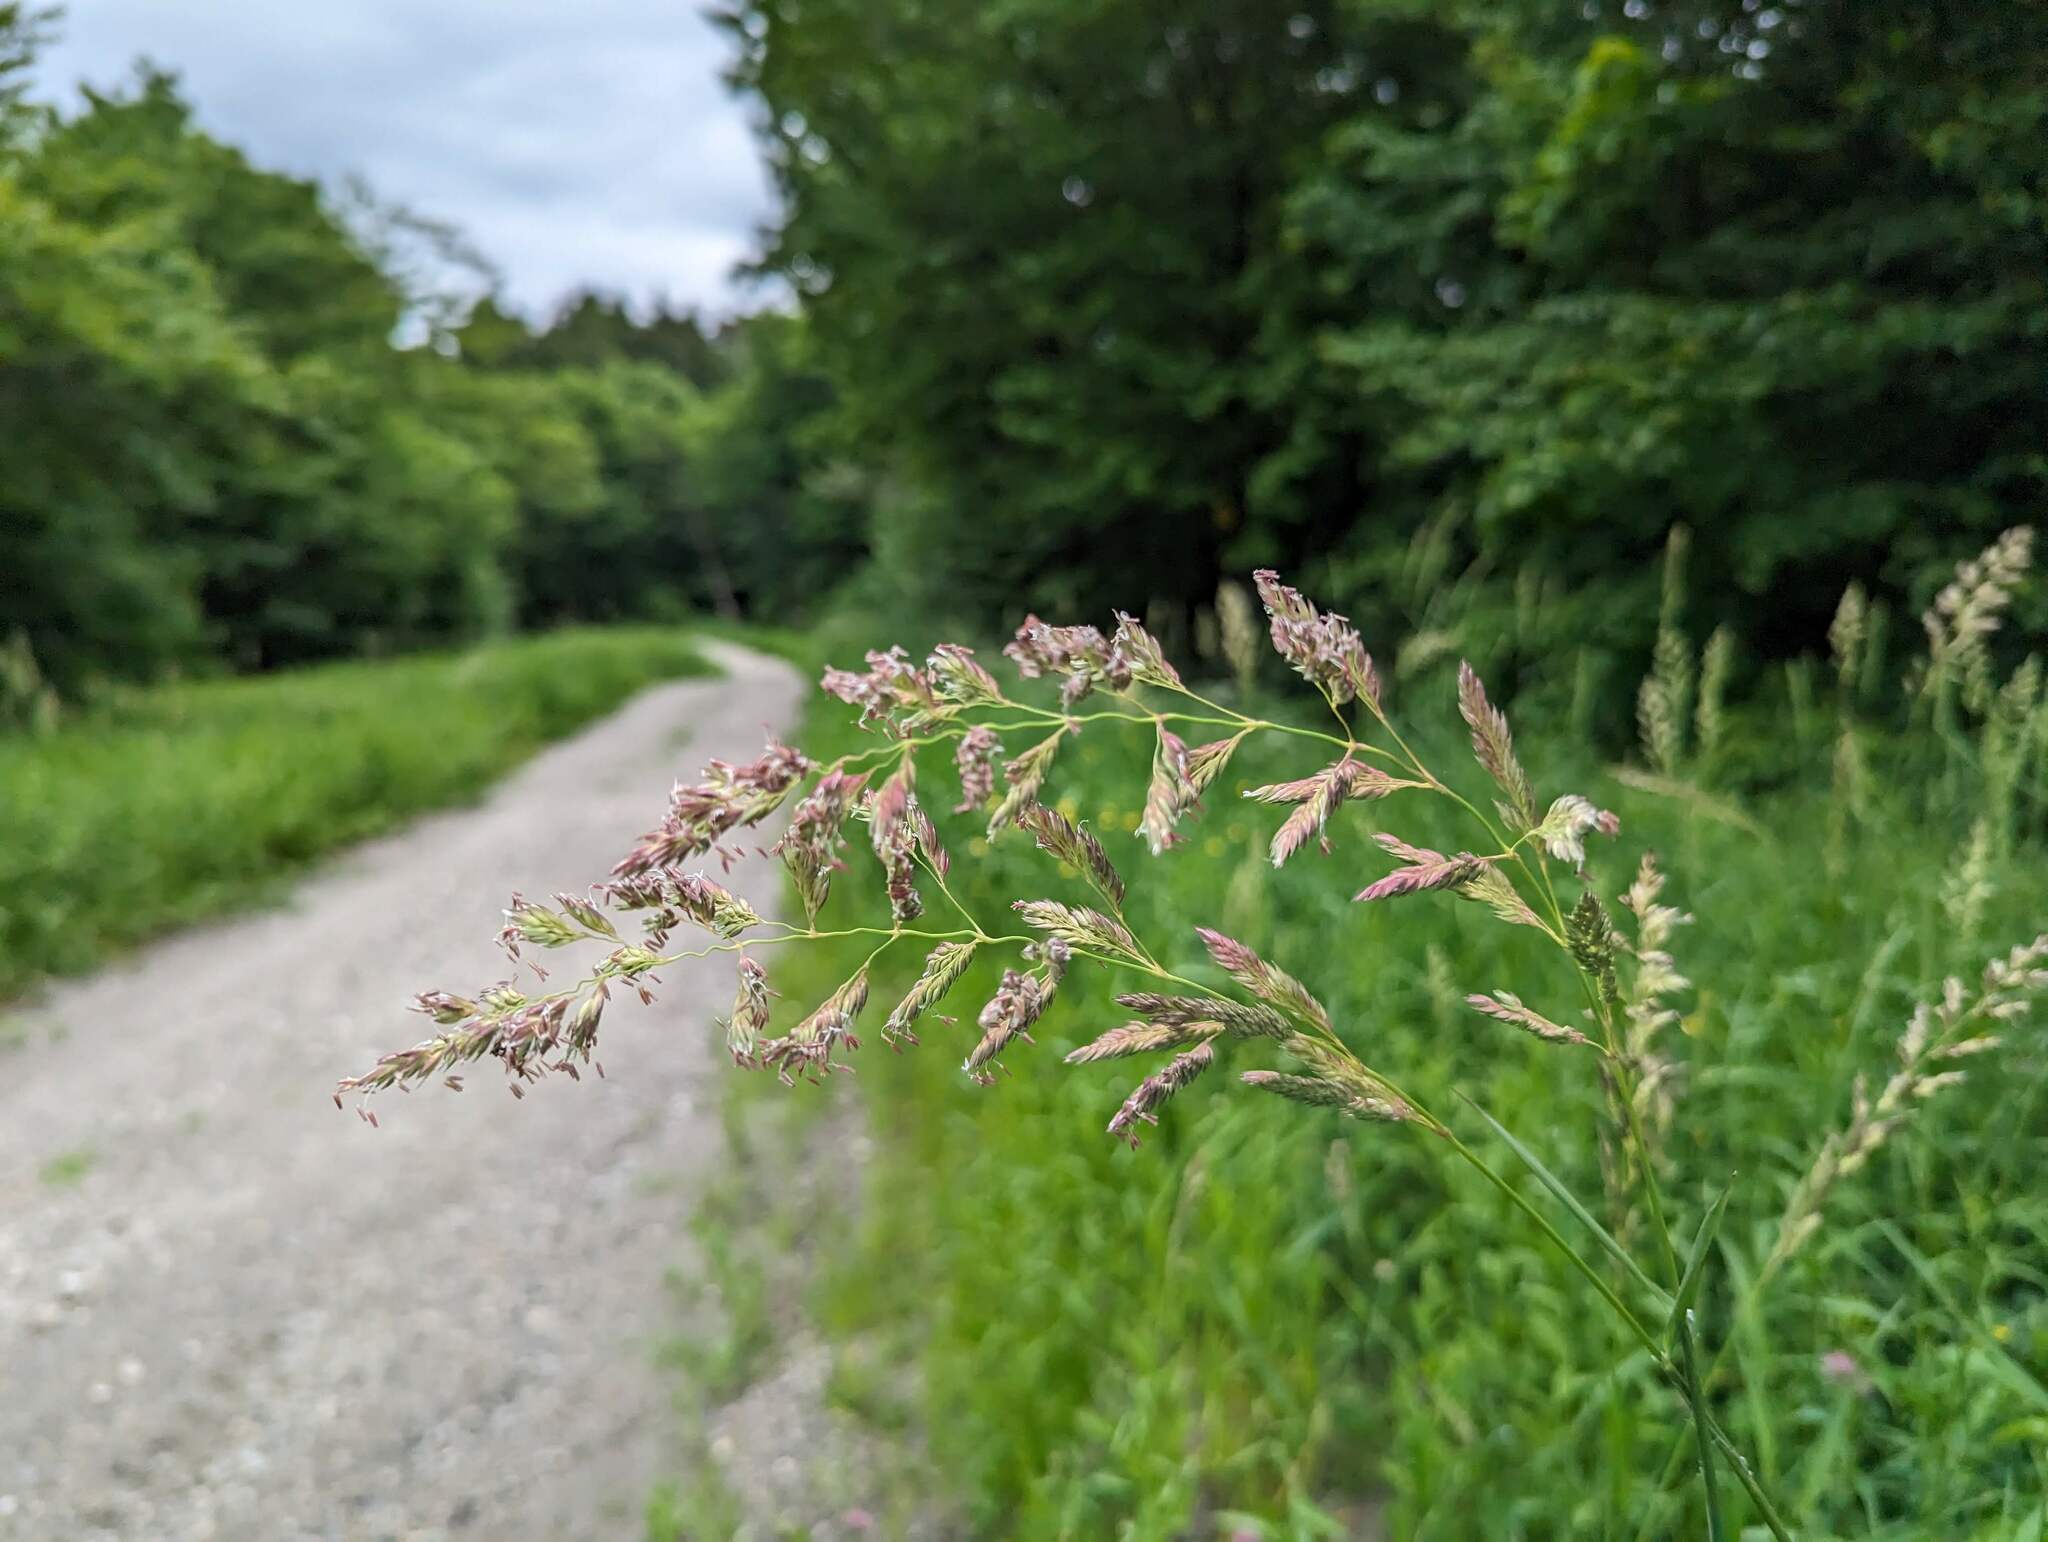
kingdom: Plantae
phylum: Tracheophyta
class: Liliopsida
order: Poales
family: Poaceae
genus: Phalaris
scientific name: Phalaris arundinacea
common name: Reed canary-grass
